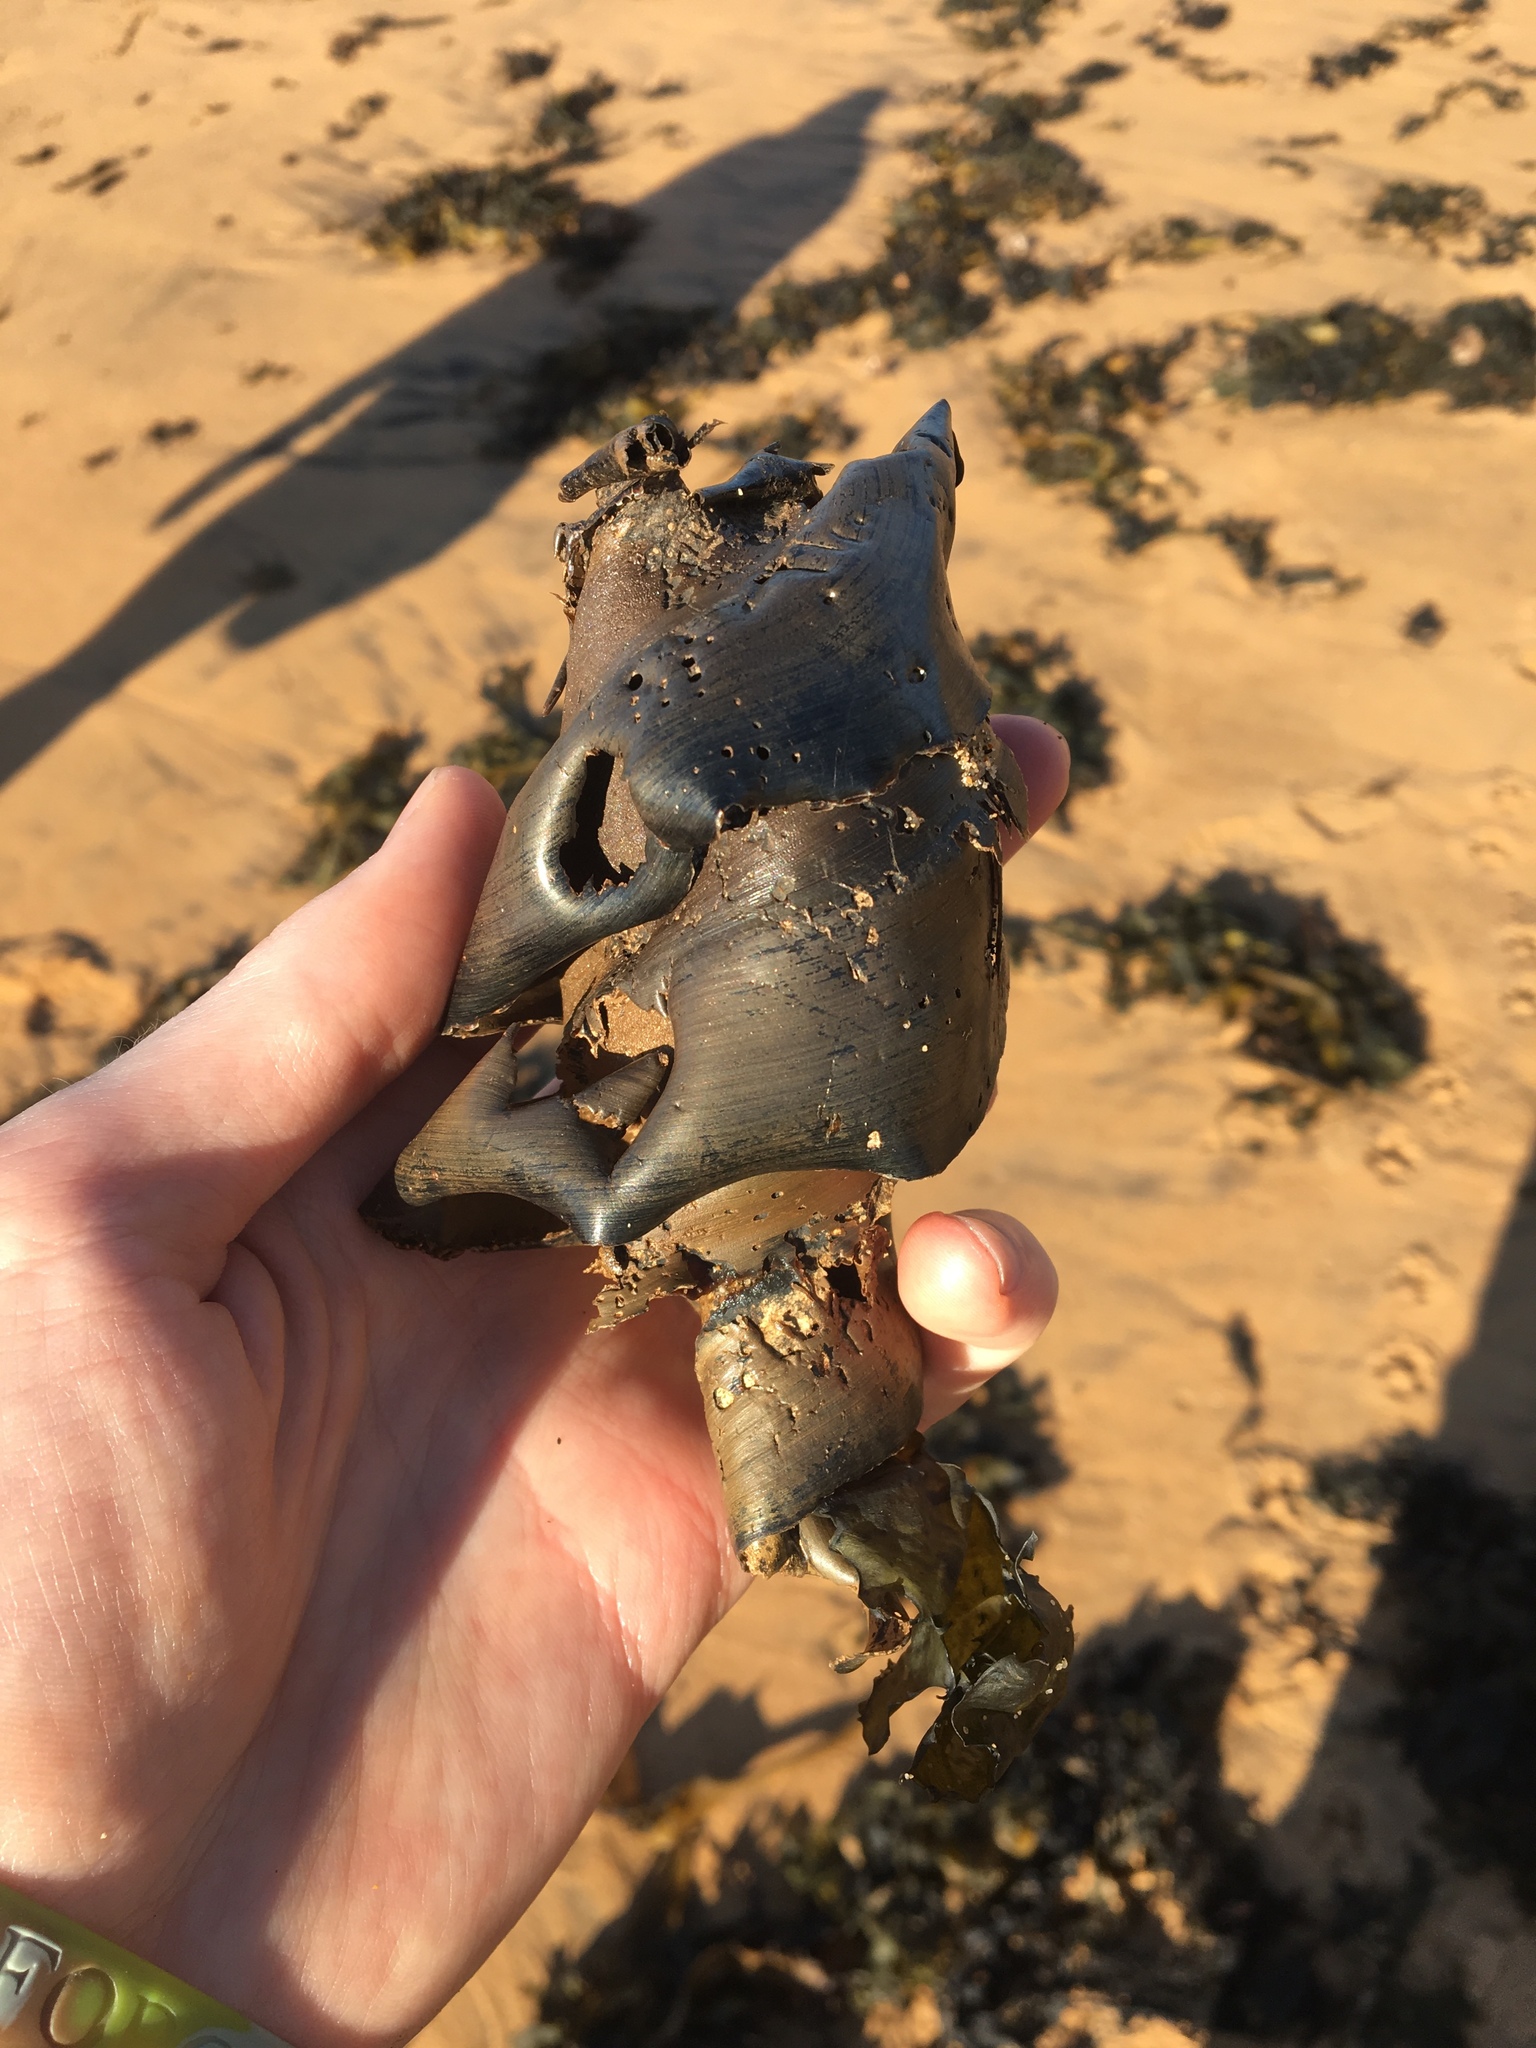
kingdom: Animalia
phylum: Chordata
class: Elasmobranchii
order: Heterodontiformes
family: Heterodontidae
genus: Heterodontus
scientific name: Heterodontus portusjacksoni
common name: Port jackson shark
